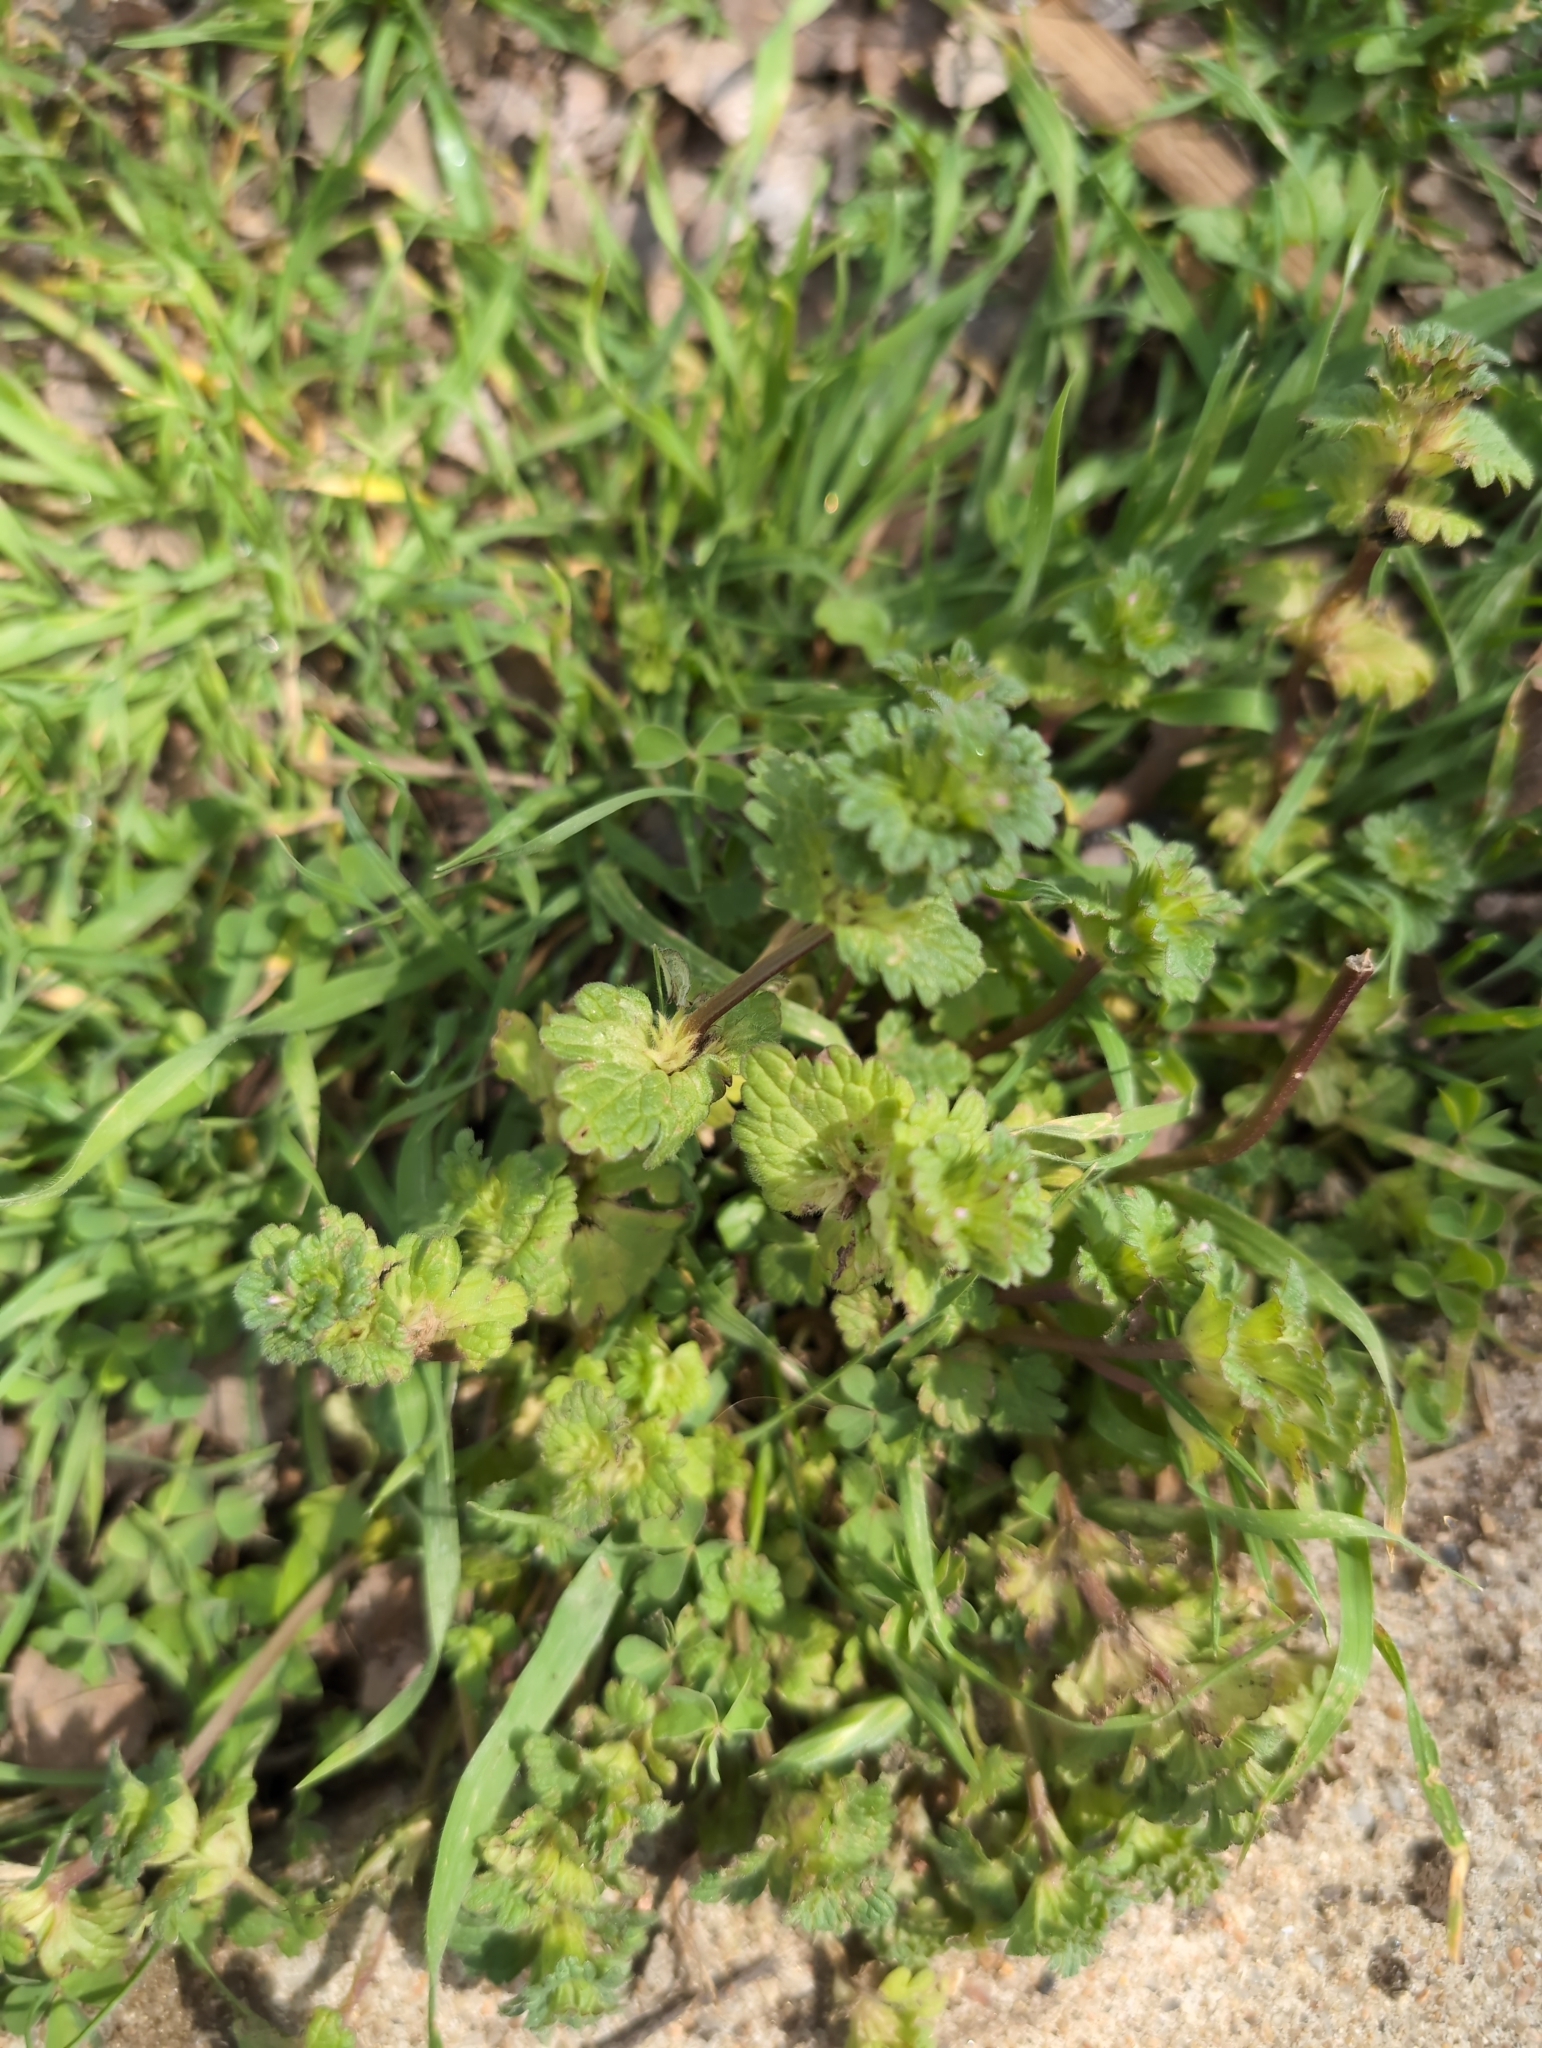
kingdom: Plantae
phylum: Tracheophyta
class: Magnoliopsida
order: Lamiales
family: Lamiaceae
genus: Lamium
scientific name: Lamium amplexicaule
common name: Henbit dead-nettle
